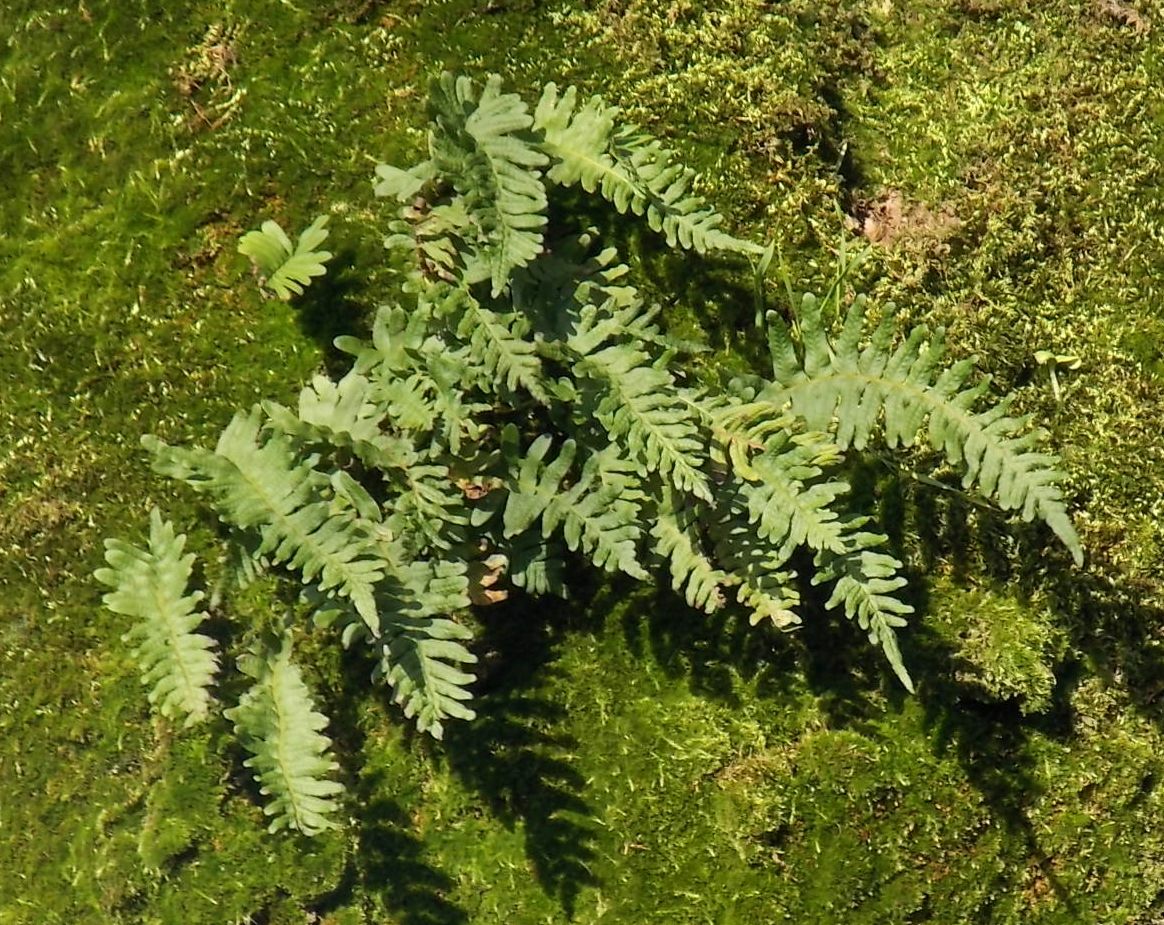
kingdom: Plantae
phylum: Tracheophyta
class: Polypodiopsida
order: Polypodiales
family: Polypodiaceae
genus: Polypodium
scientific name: Polypodium
